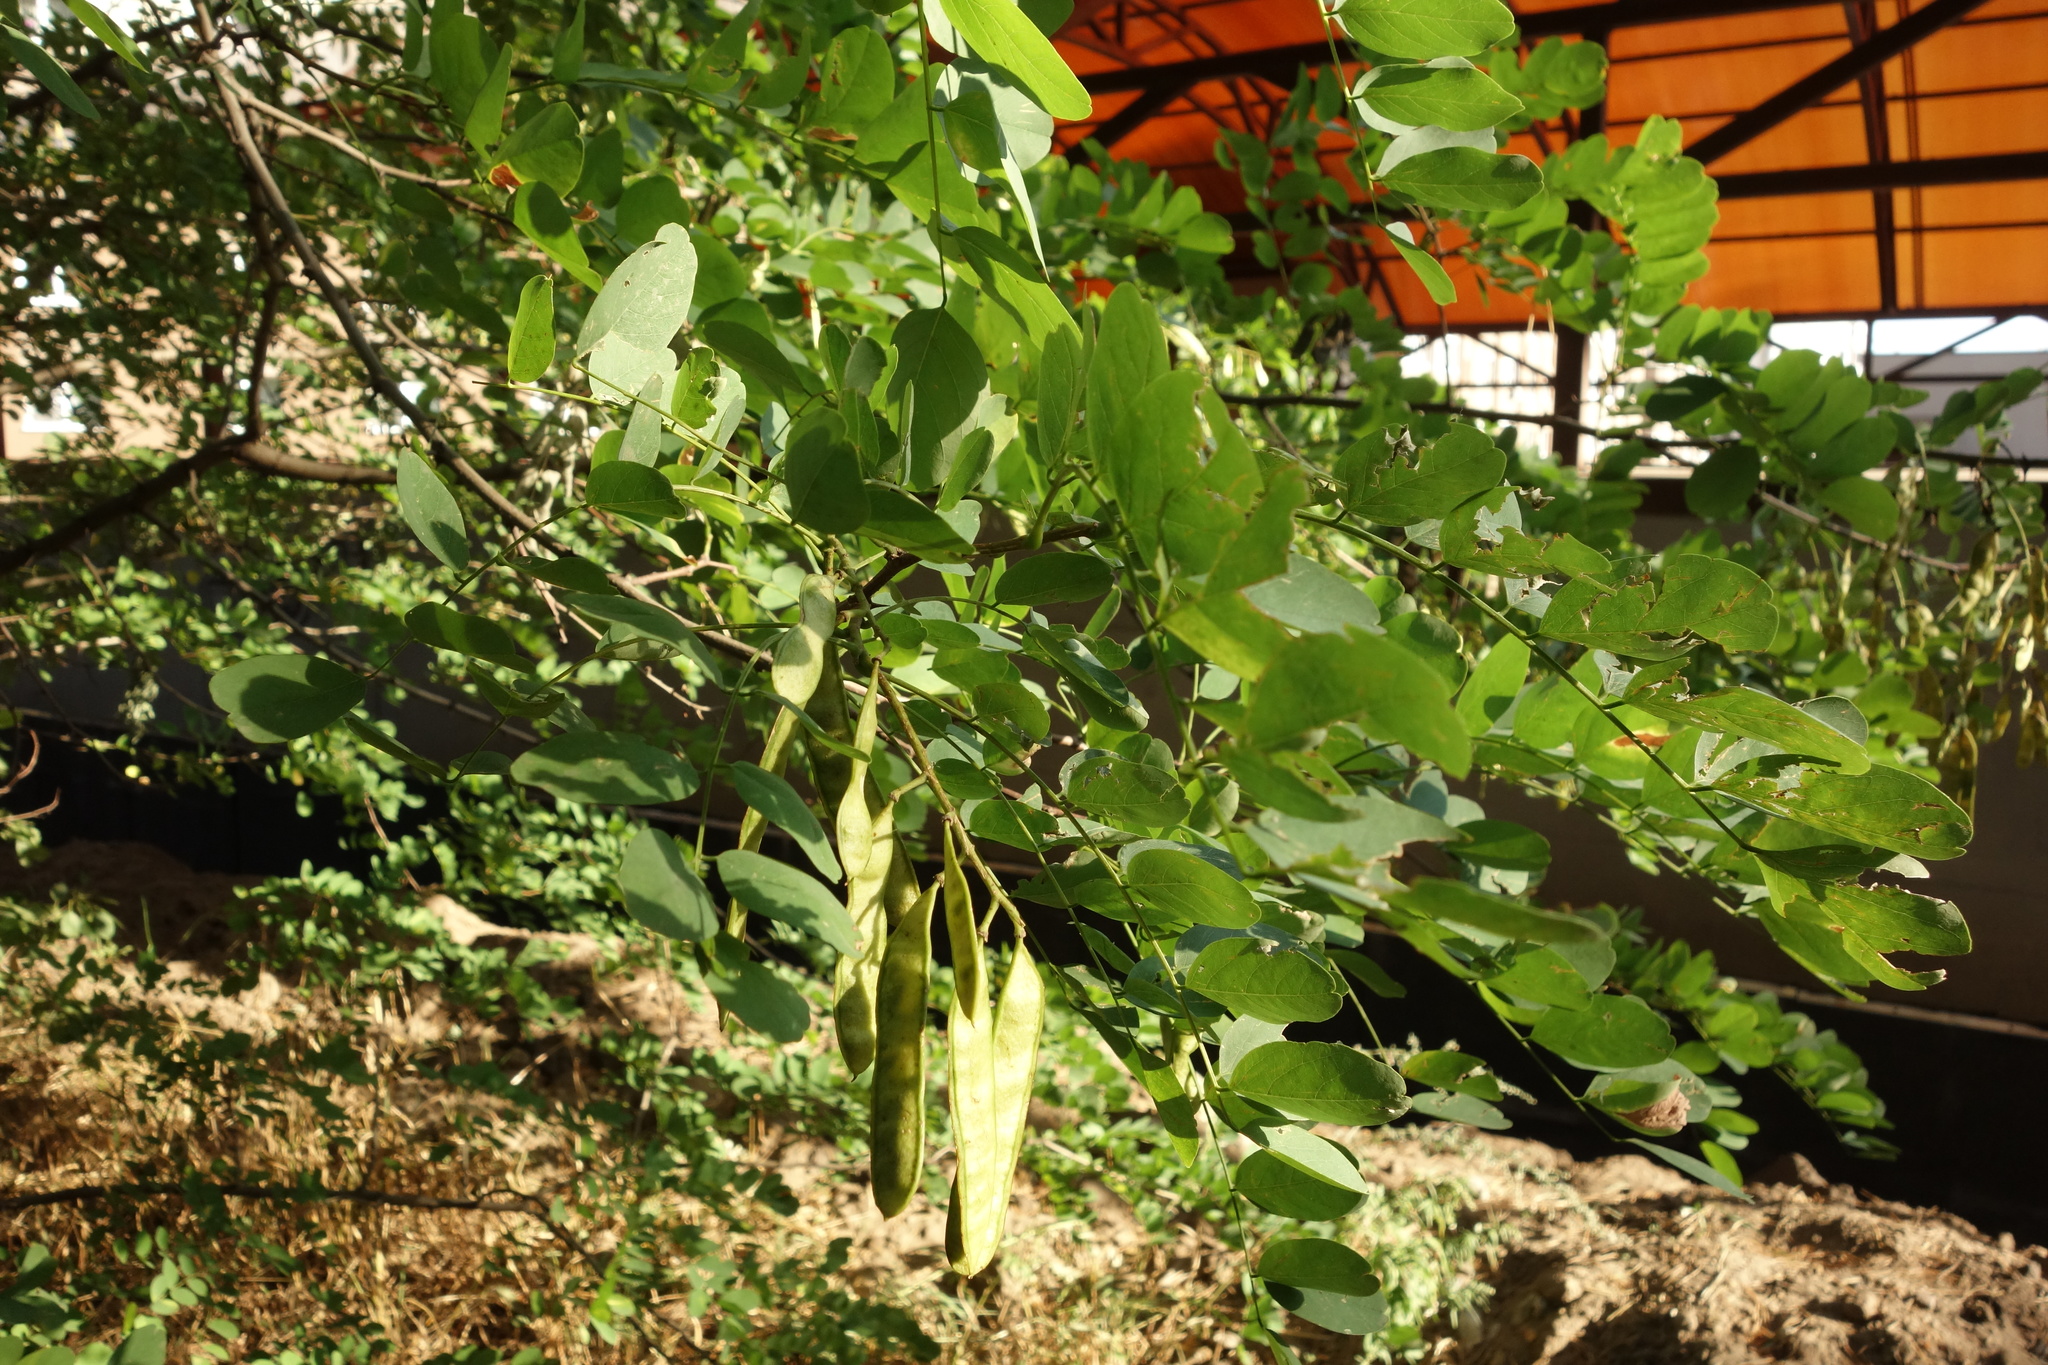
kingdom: Plantae
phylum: Tracheophyta
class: Magnoliopsida
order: Fabales
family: Fabaceae
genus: Robinia
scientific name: Robinia pseudoacacia
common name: Black locust
